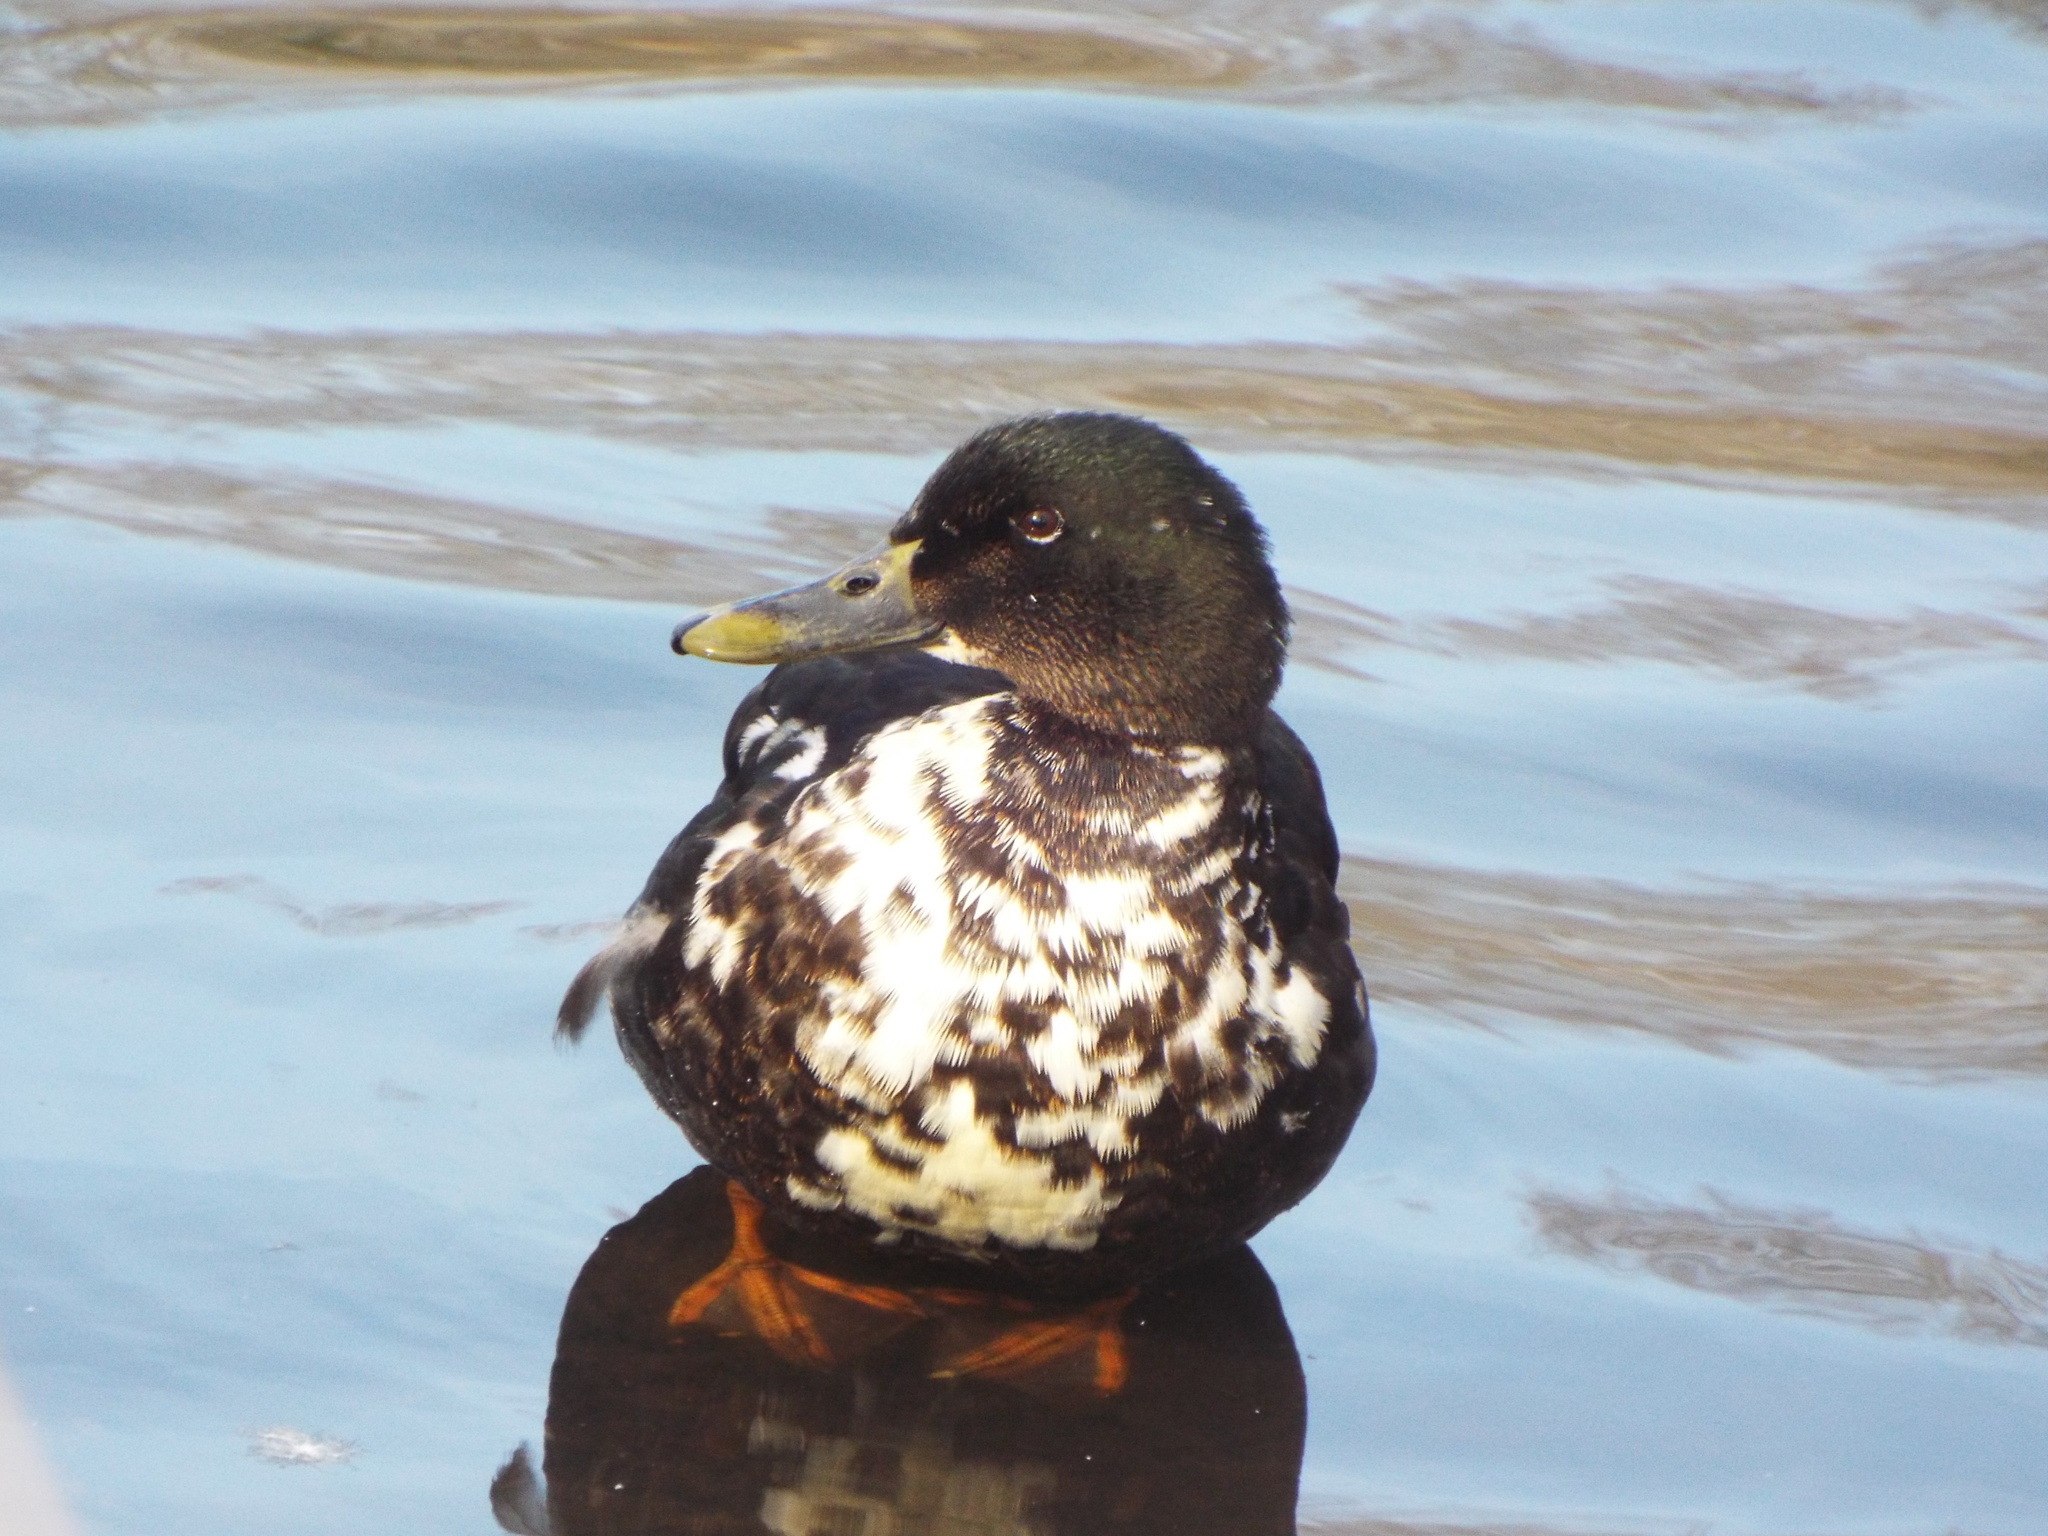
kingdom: Animalia
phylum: Chordata
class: Aves
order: Anseriformes
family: Anatidae
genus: Anas
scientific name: Anas platyrhynchos
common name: Mallard
